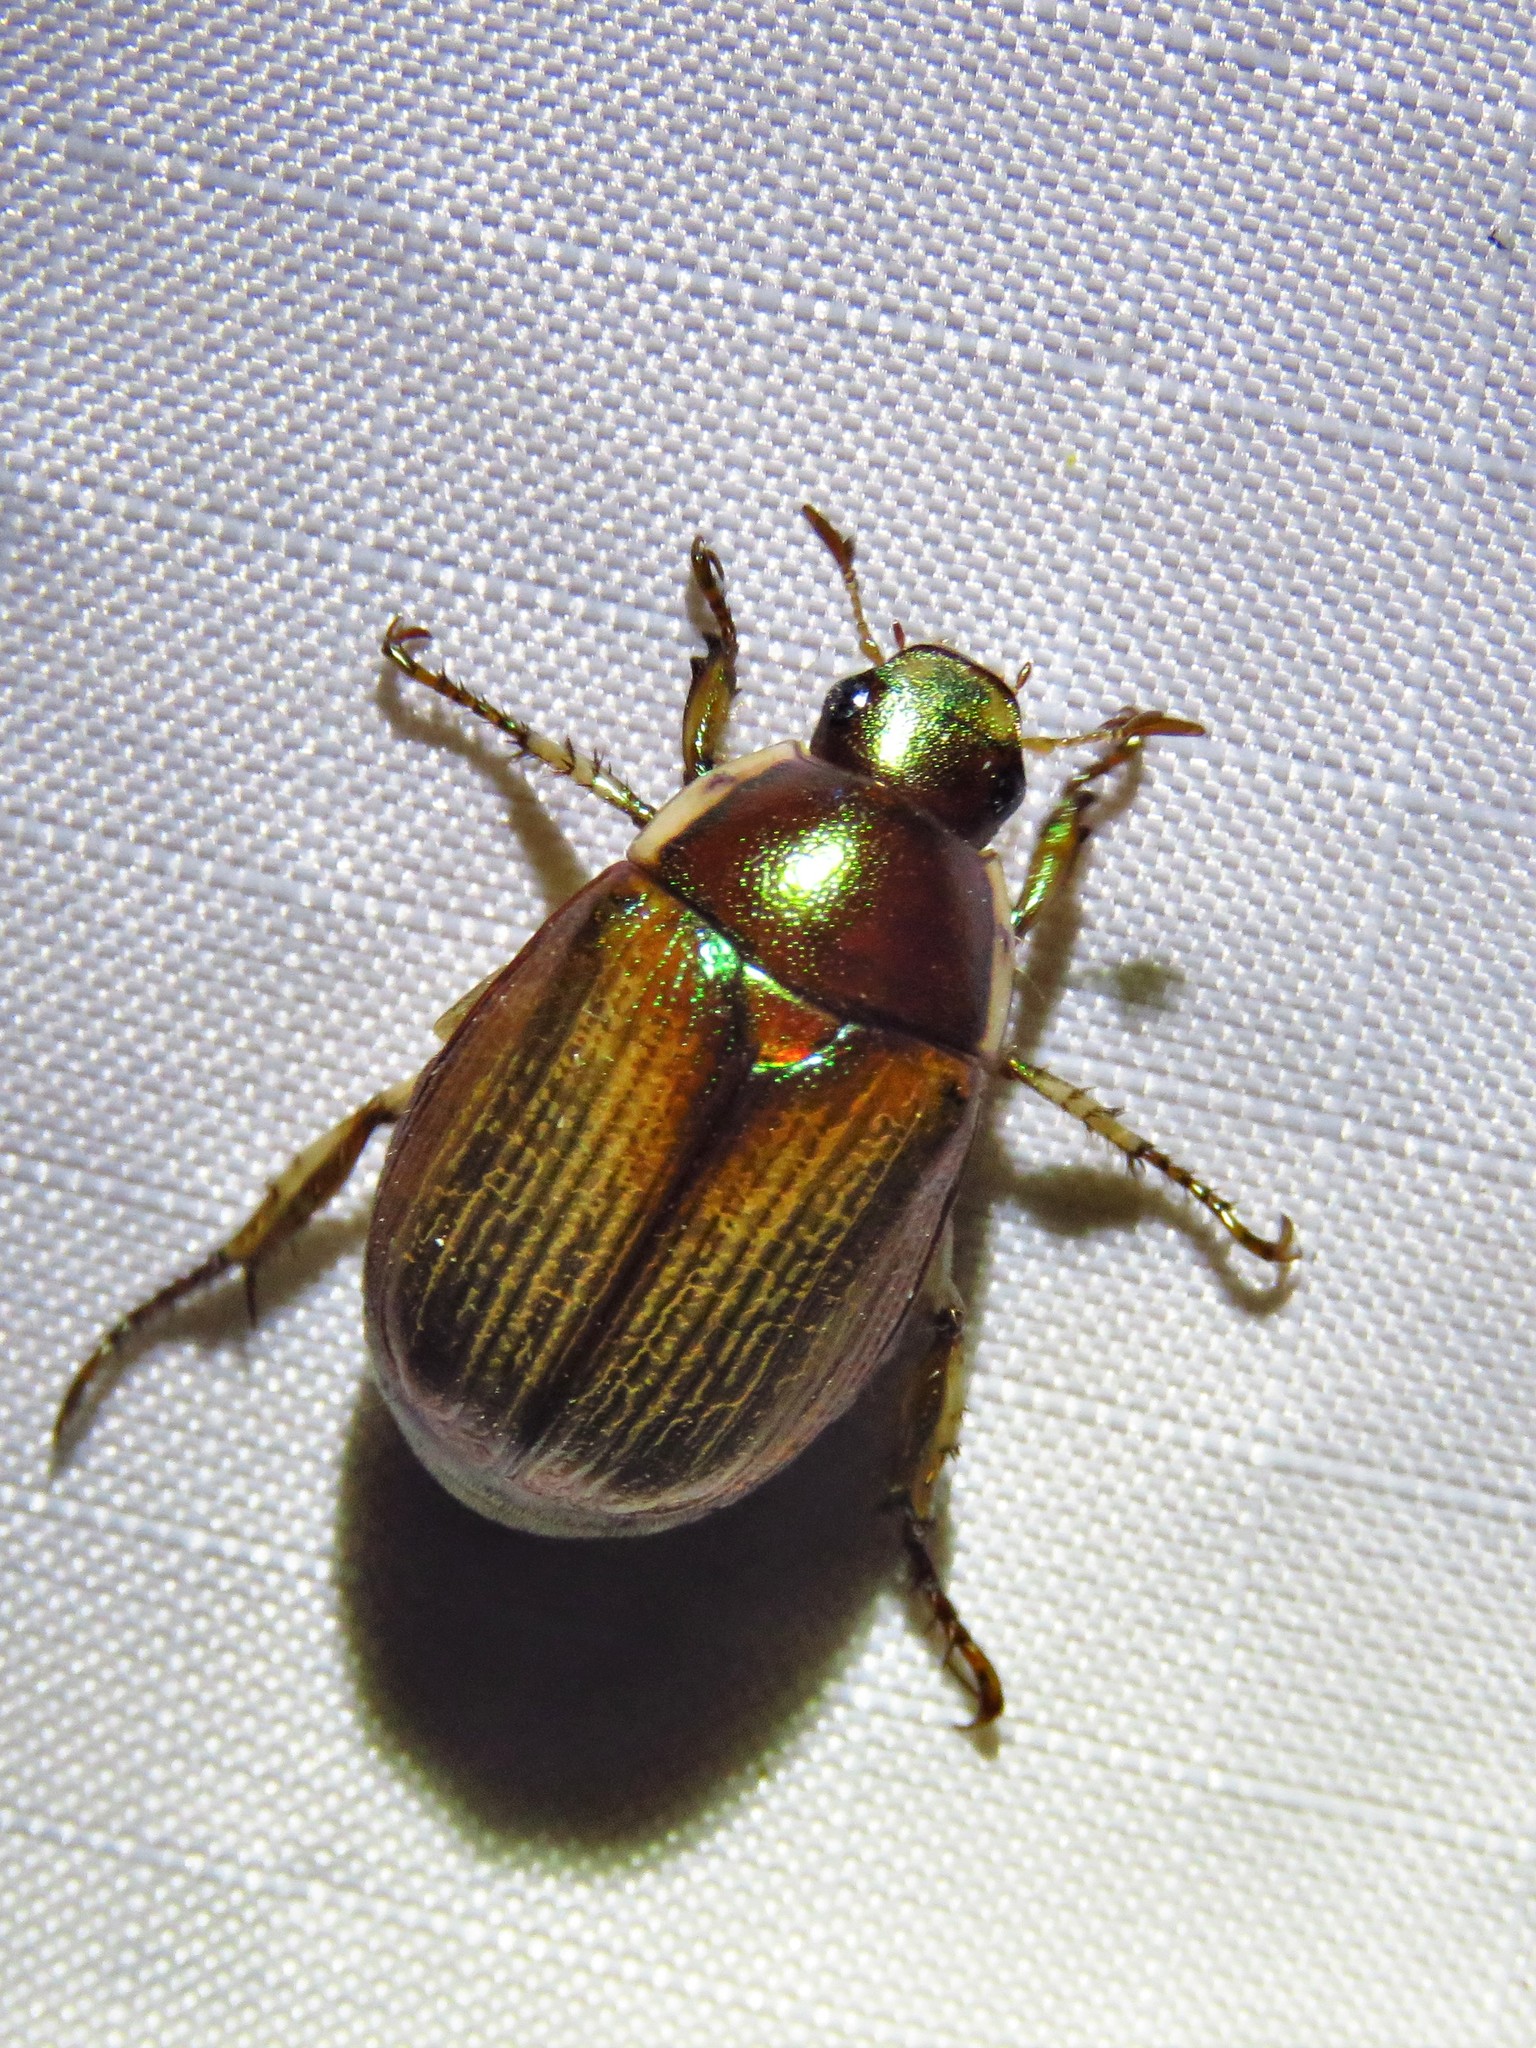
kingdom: Animalia
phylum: Arthropoda
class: Insecta
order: Coleoptera
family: Scarabaeidae
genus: Callistethus
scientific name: Callistethus marginatus
